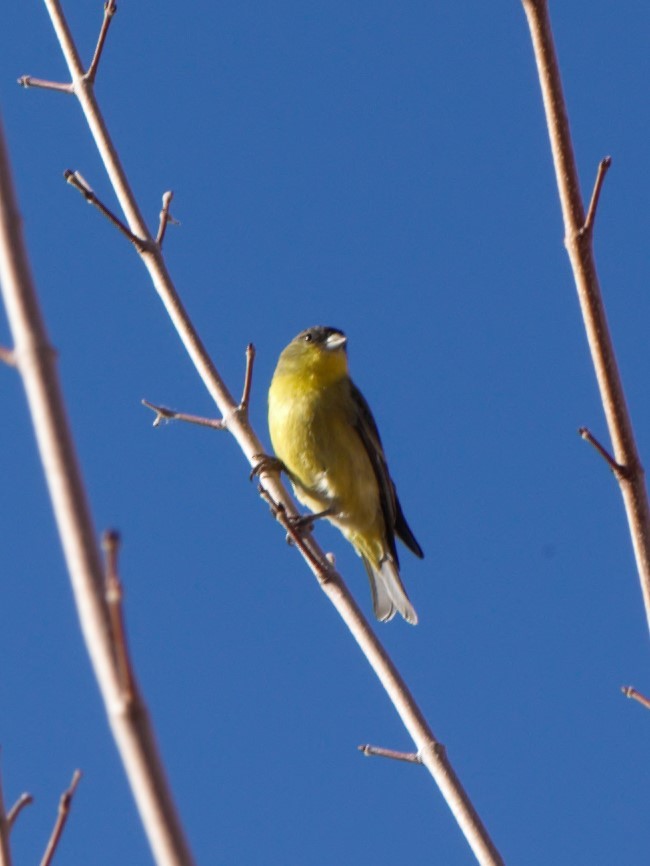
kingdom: Animalia
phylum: Chordata
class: Aves
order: Passeriformes
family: Fringillidae
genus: Spinus
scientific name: Spinus psaltria
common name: Lesser goldfinch
